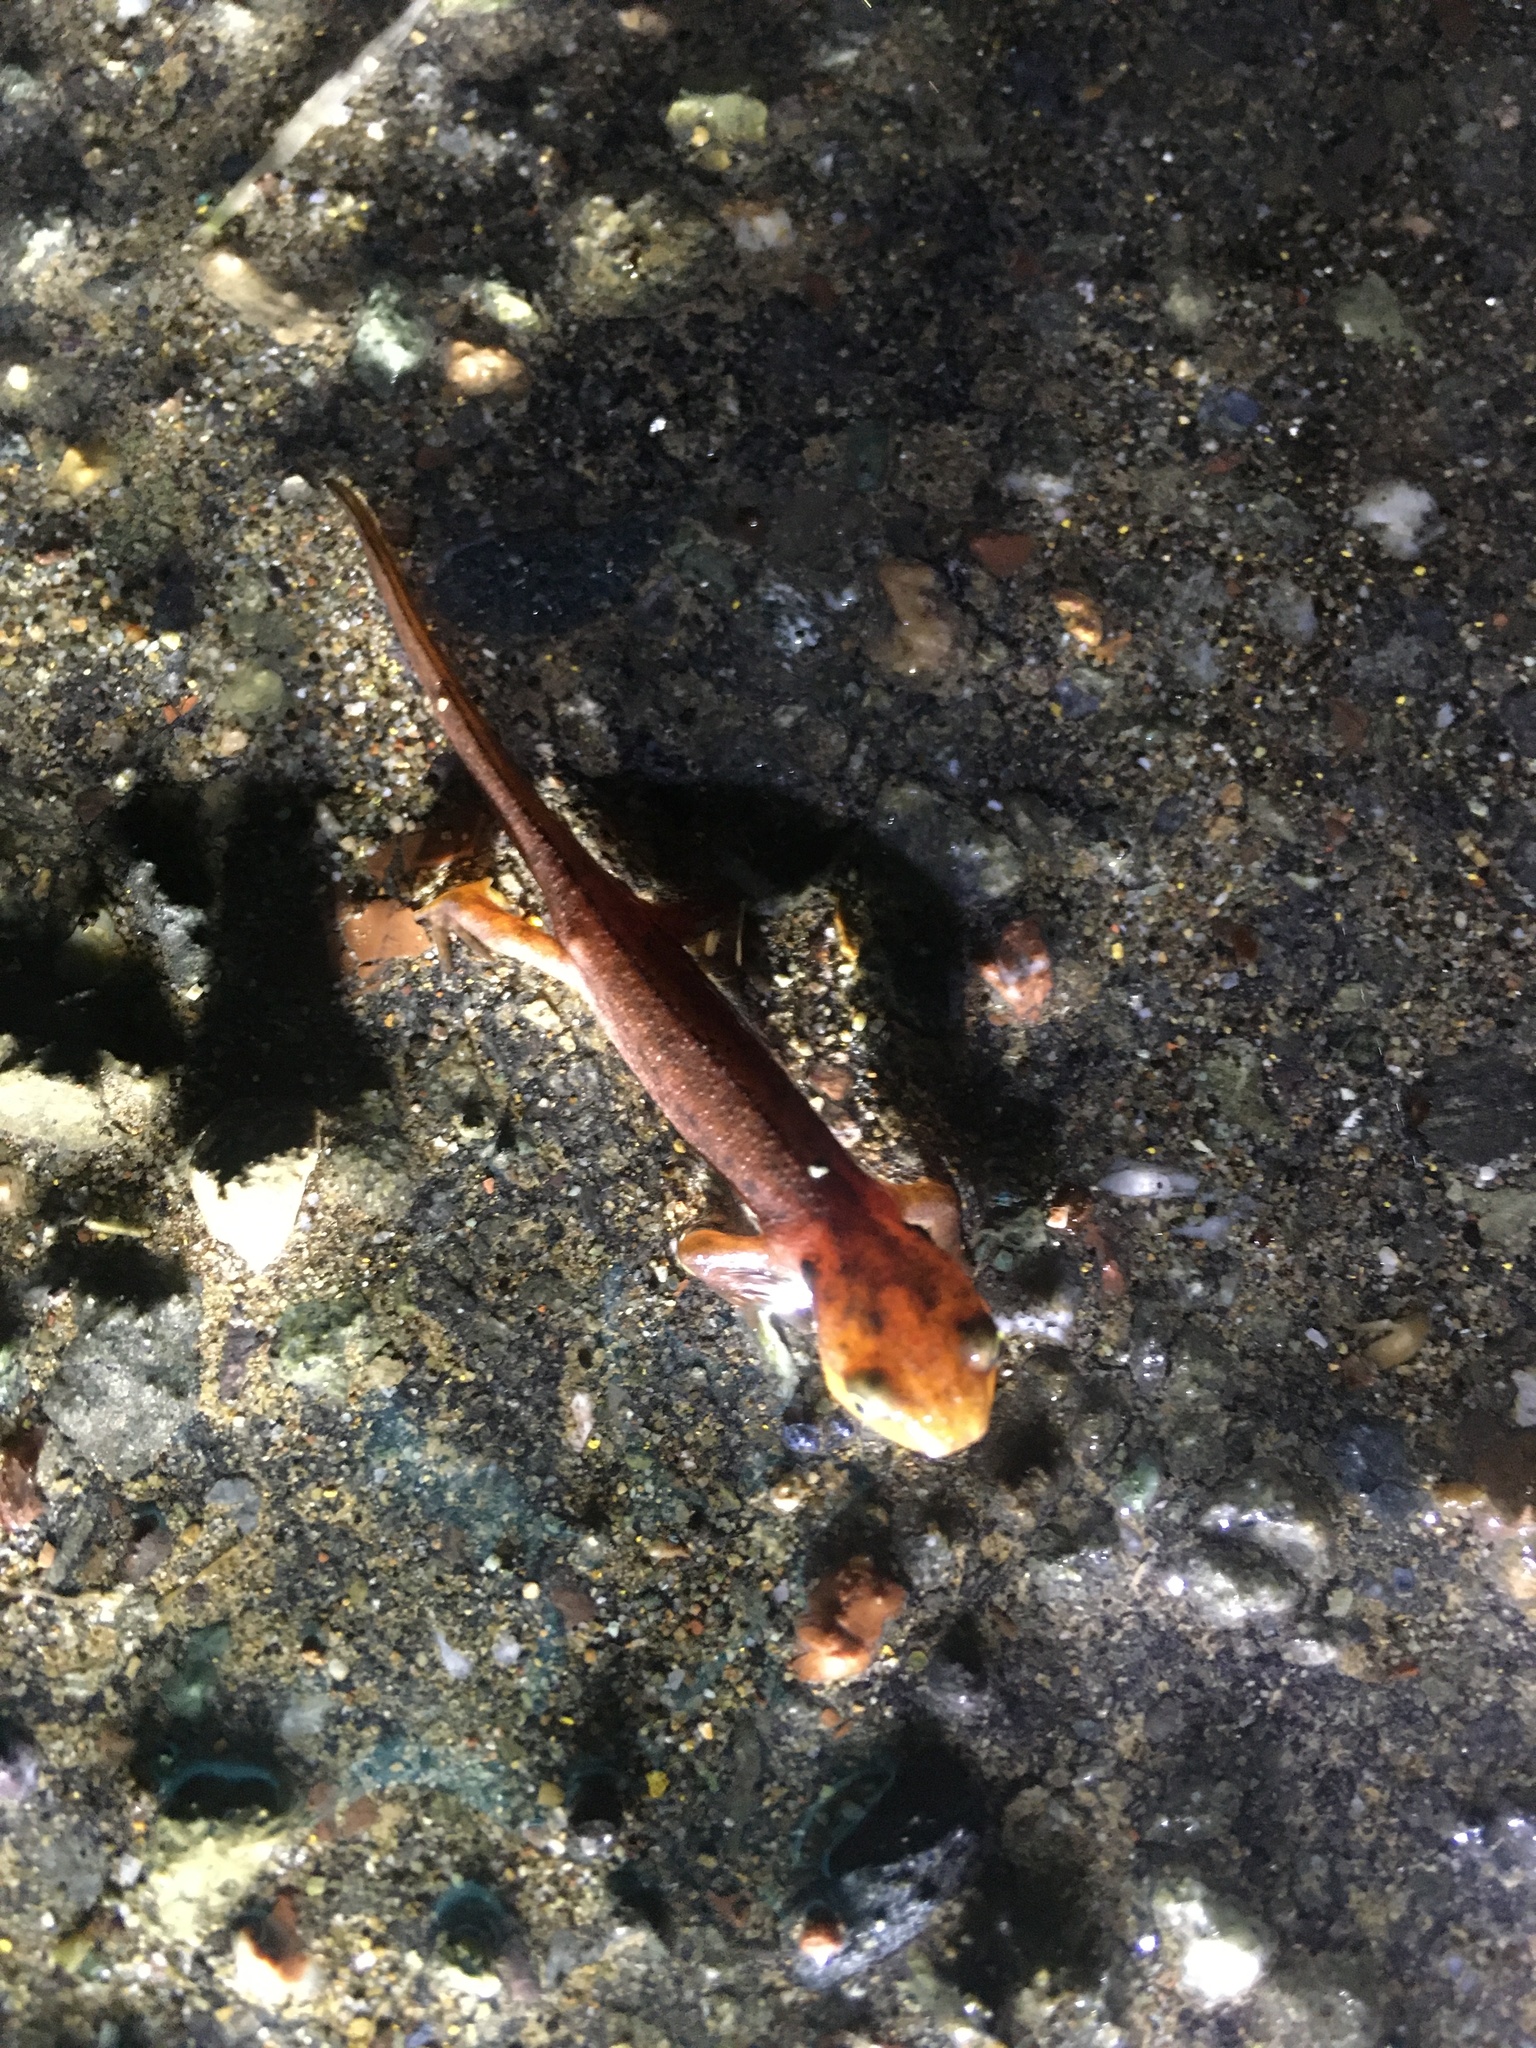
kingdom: Animalia
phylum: Chordata
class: Amphibia
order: Caudata
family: Salamandridae
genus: Taricha
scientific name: Taricha
